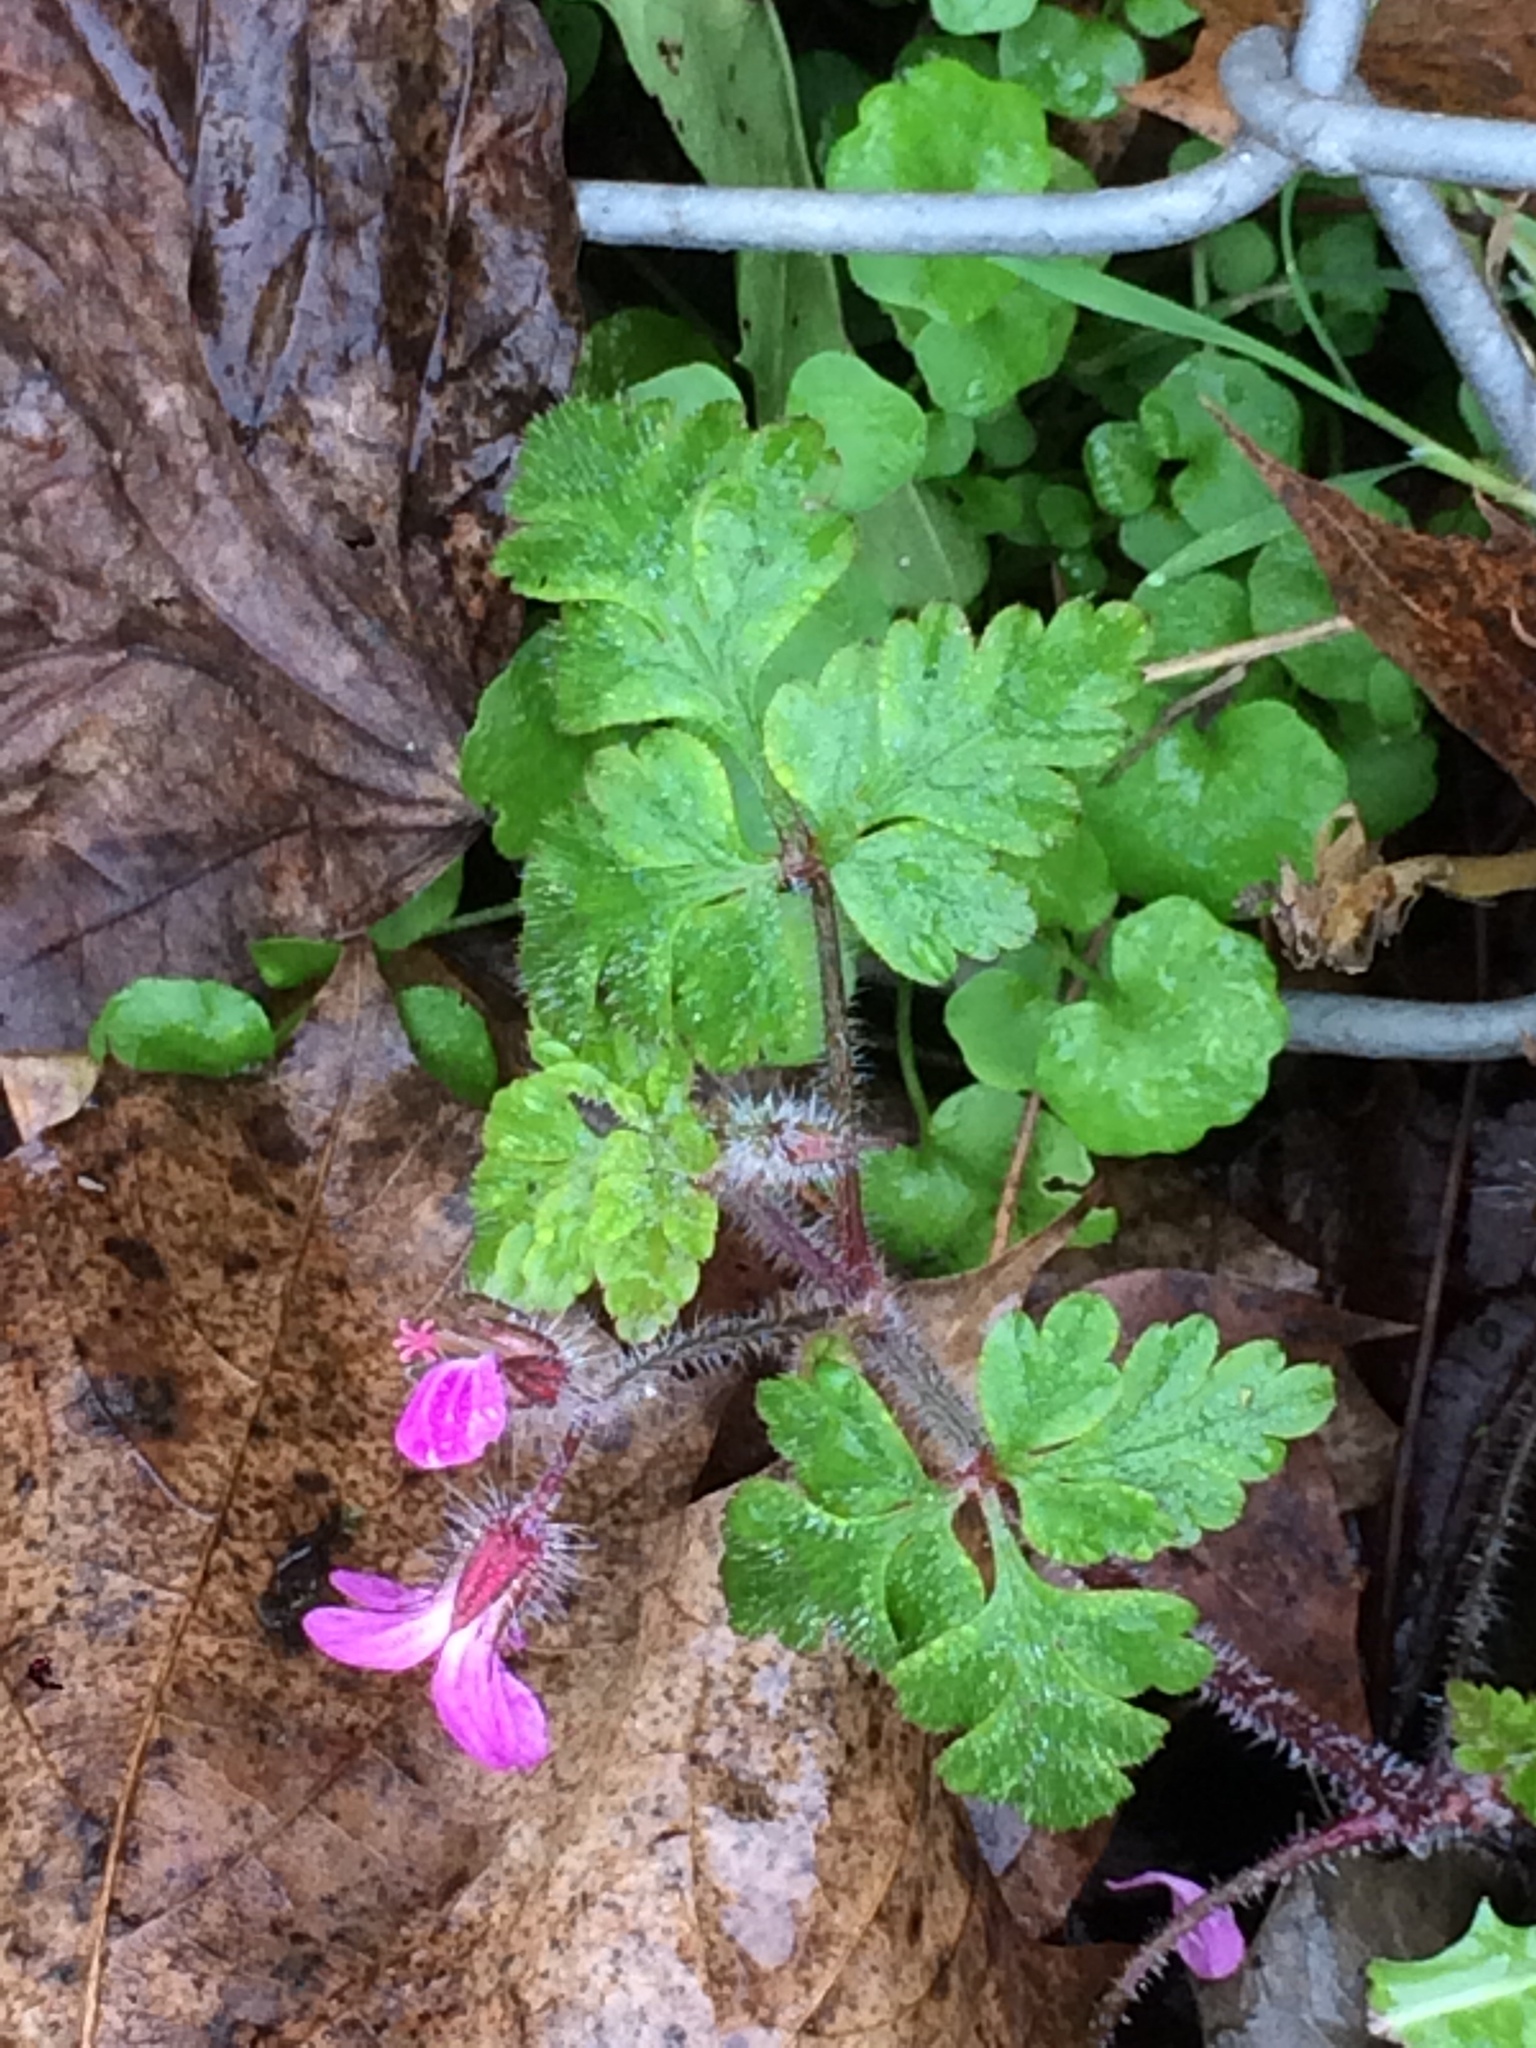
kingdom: Plantae
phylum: Tracheophyta
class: Magnoliopsida
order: Geraniales
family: Geraniaceae
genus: Geranium
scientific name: Geranium robertianum
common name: Herb-robert
